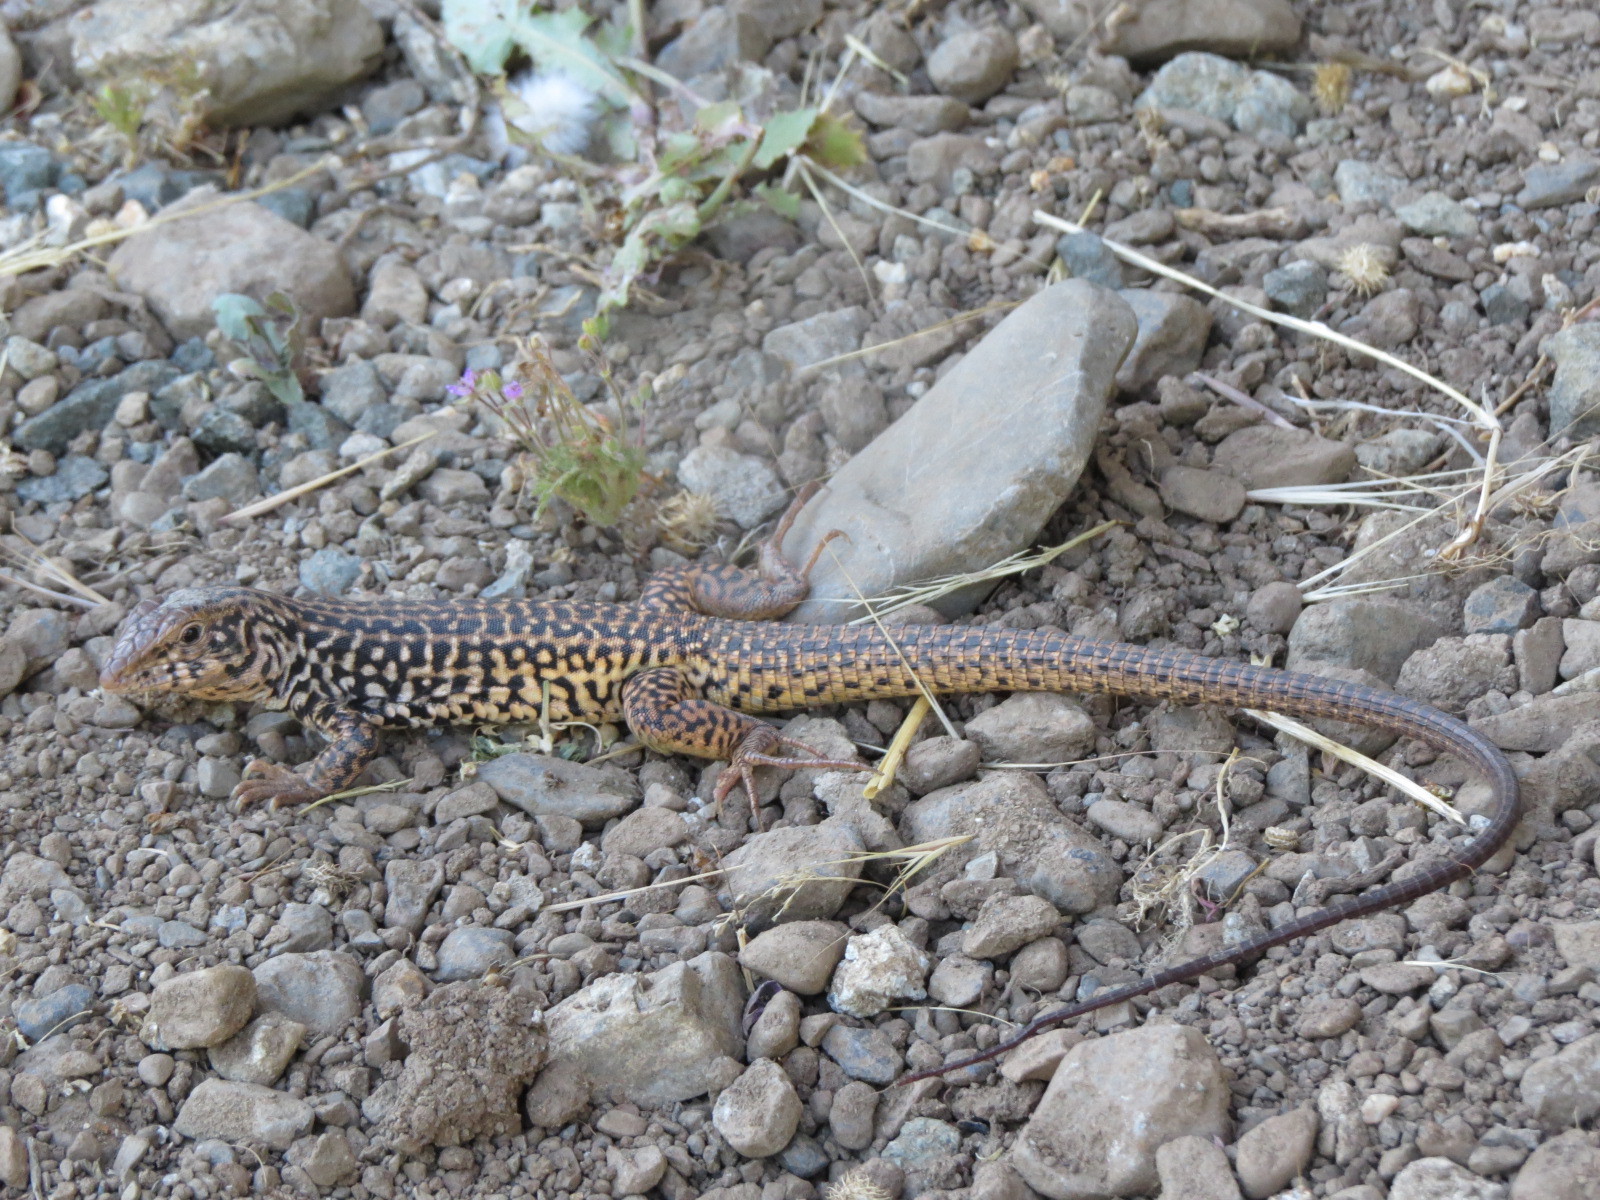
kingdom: Animalia
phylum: Chordata
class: Squamata
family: Teiidae
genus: Aspidoscelis
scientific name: Aspidoscelis tigris
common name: Tiger whiptail
